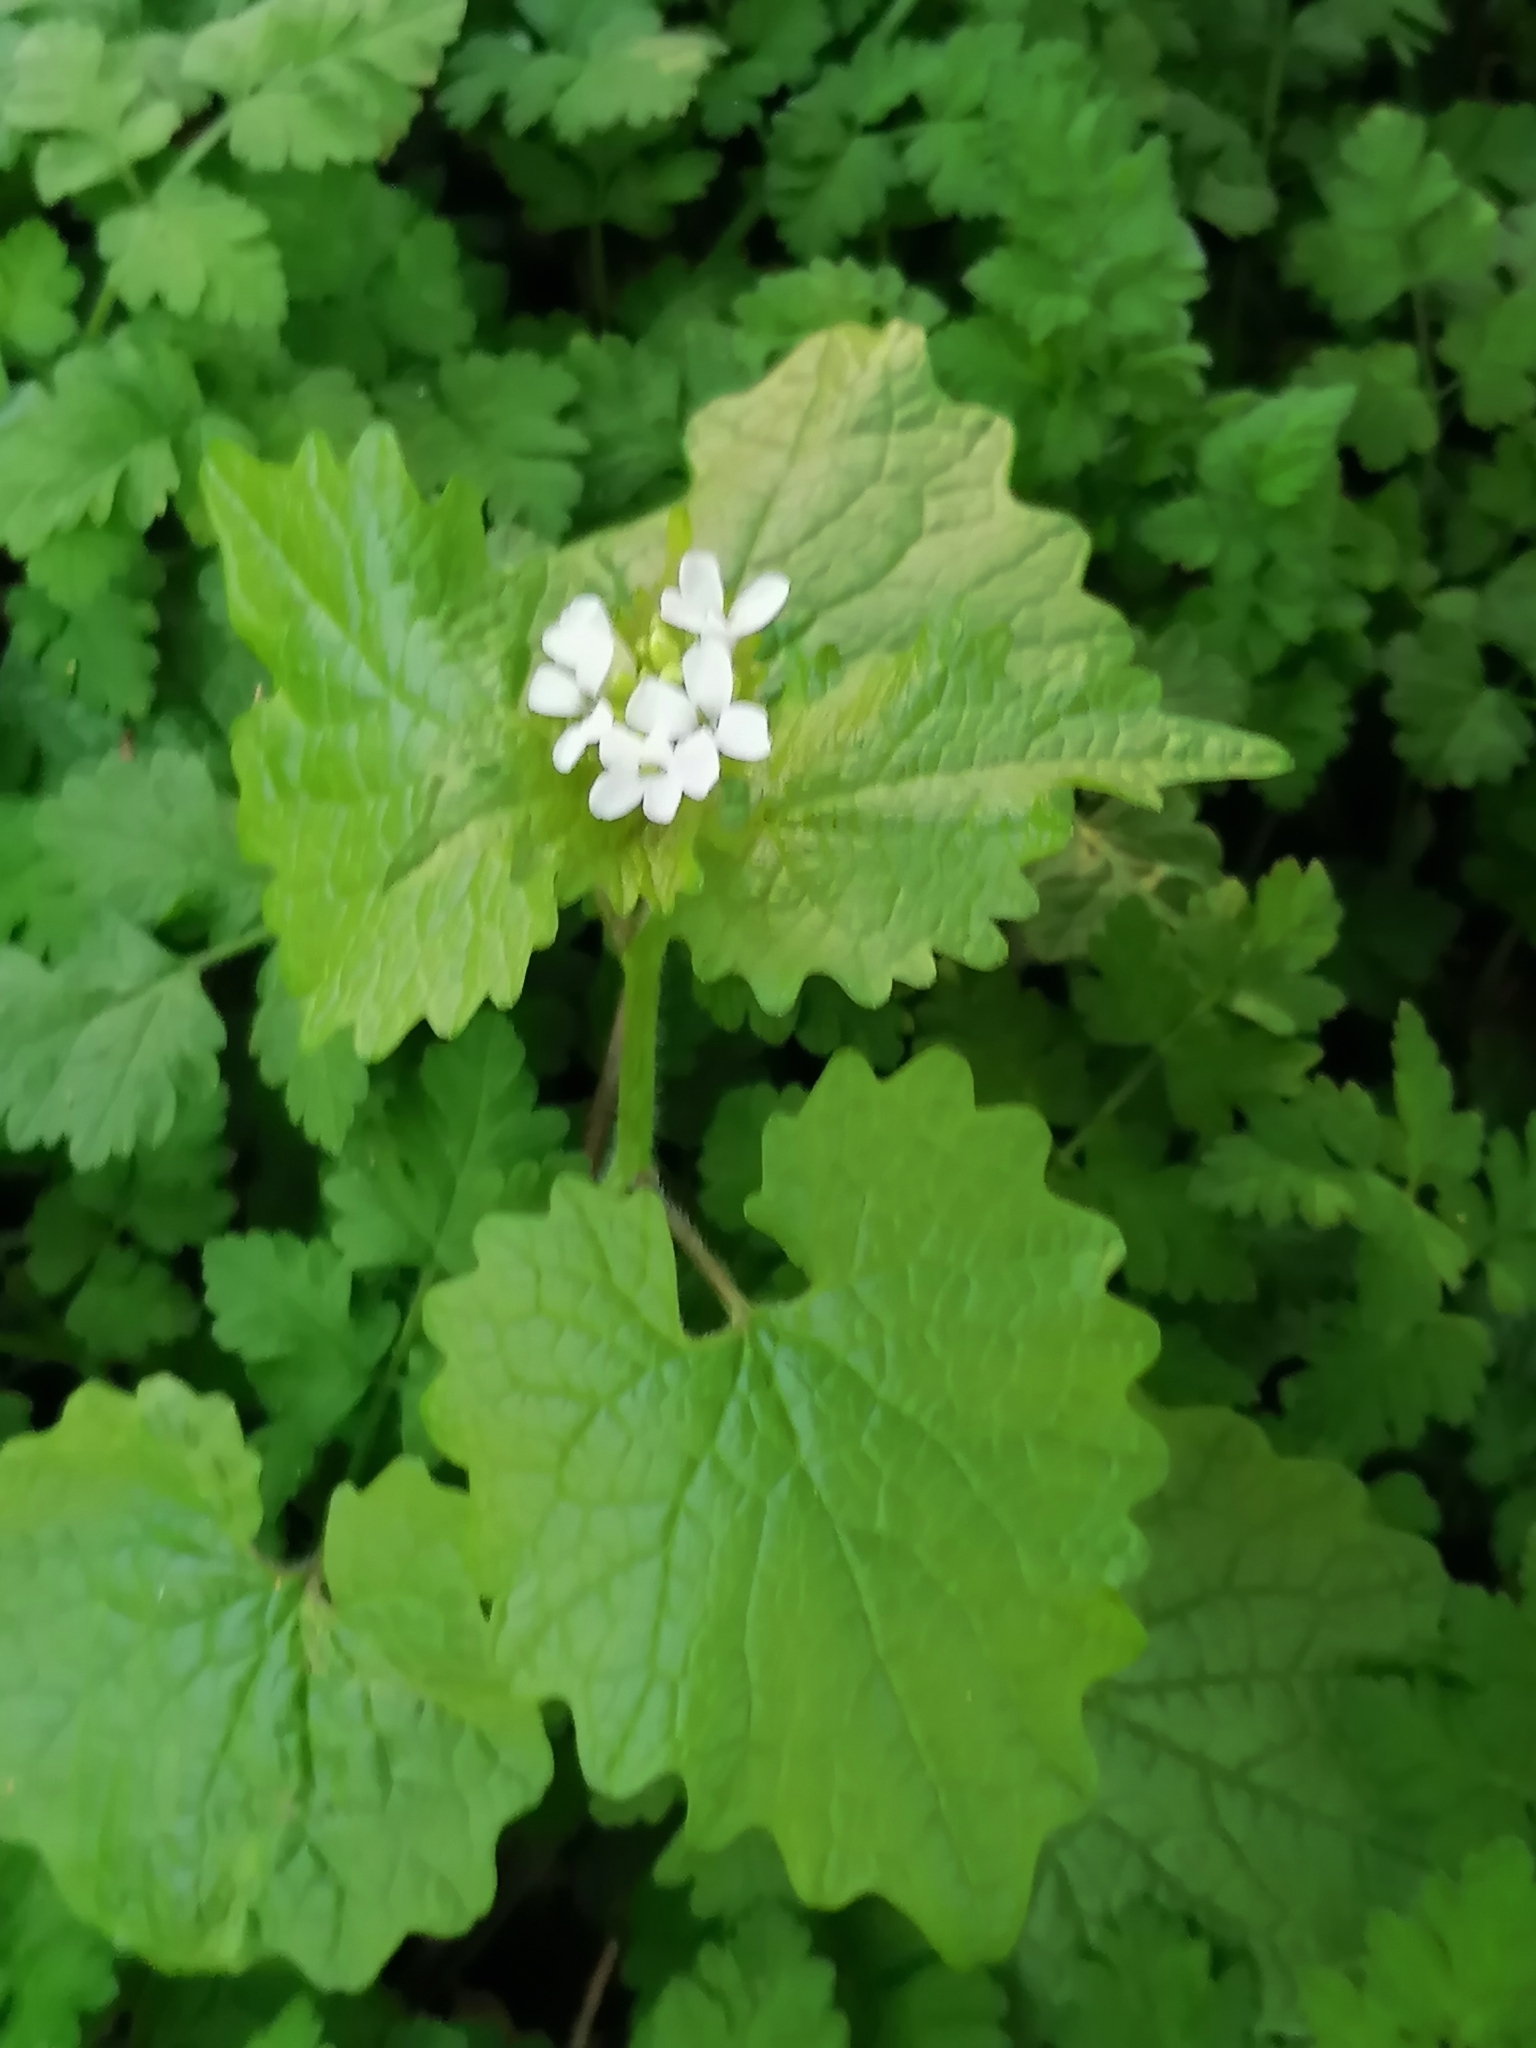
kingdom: Plantae
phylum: Tracheophyta
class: Magnoliopsida
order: Brassicales
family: Brassicaceae
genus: Alliaria
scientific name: Alliaria petiolata
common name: Garlic mustard
